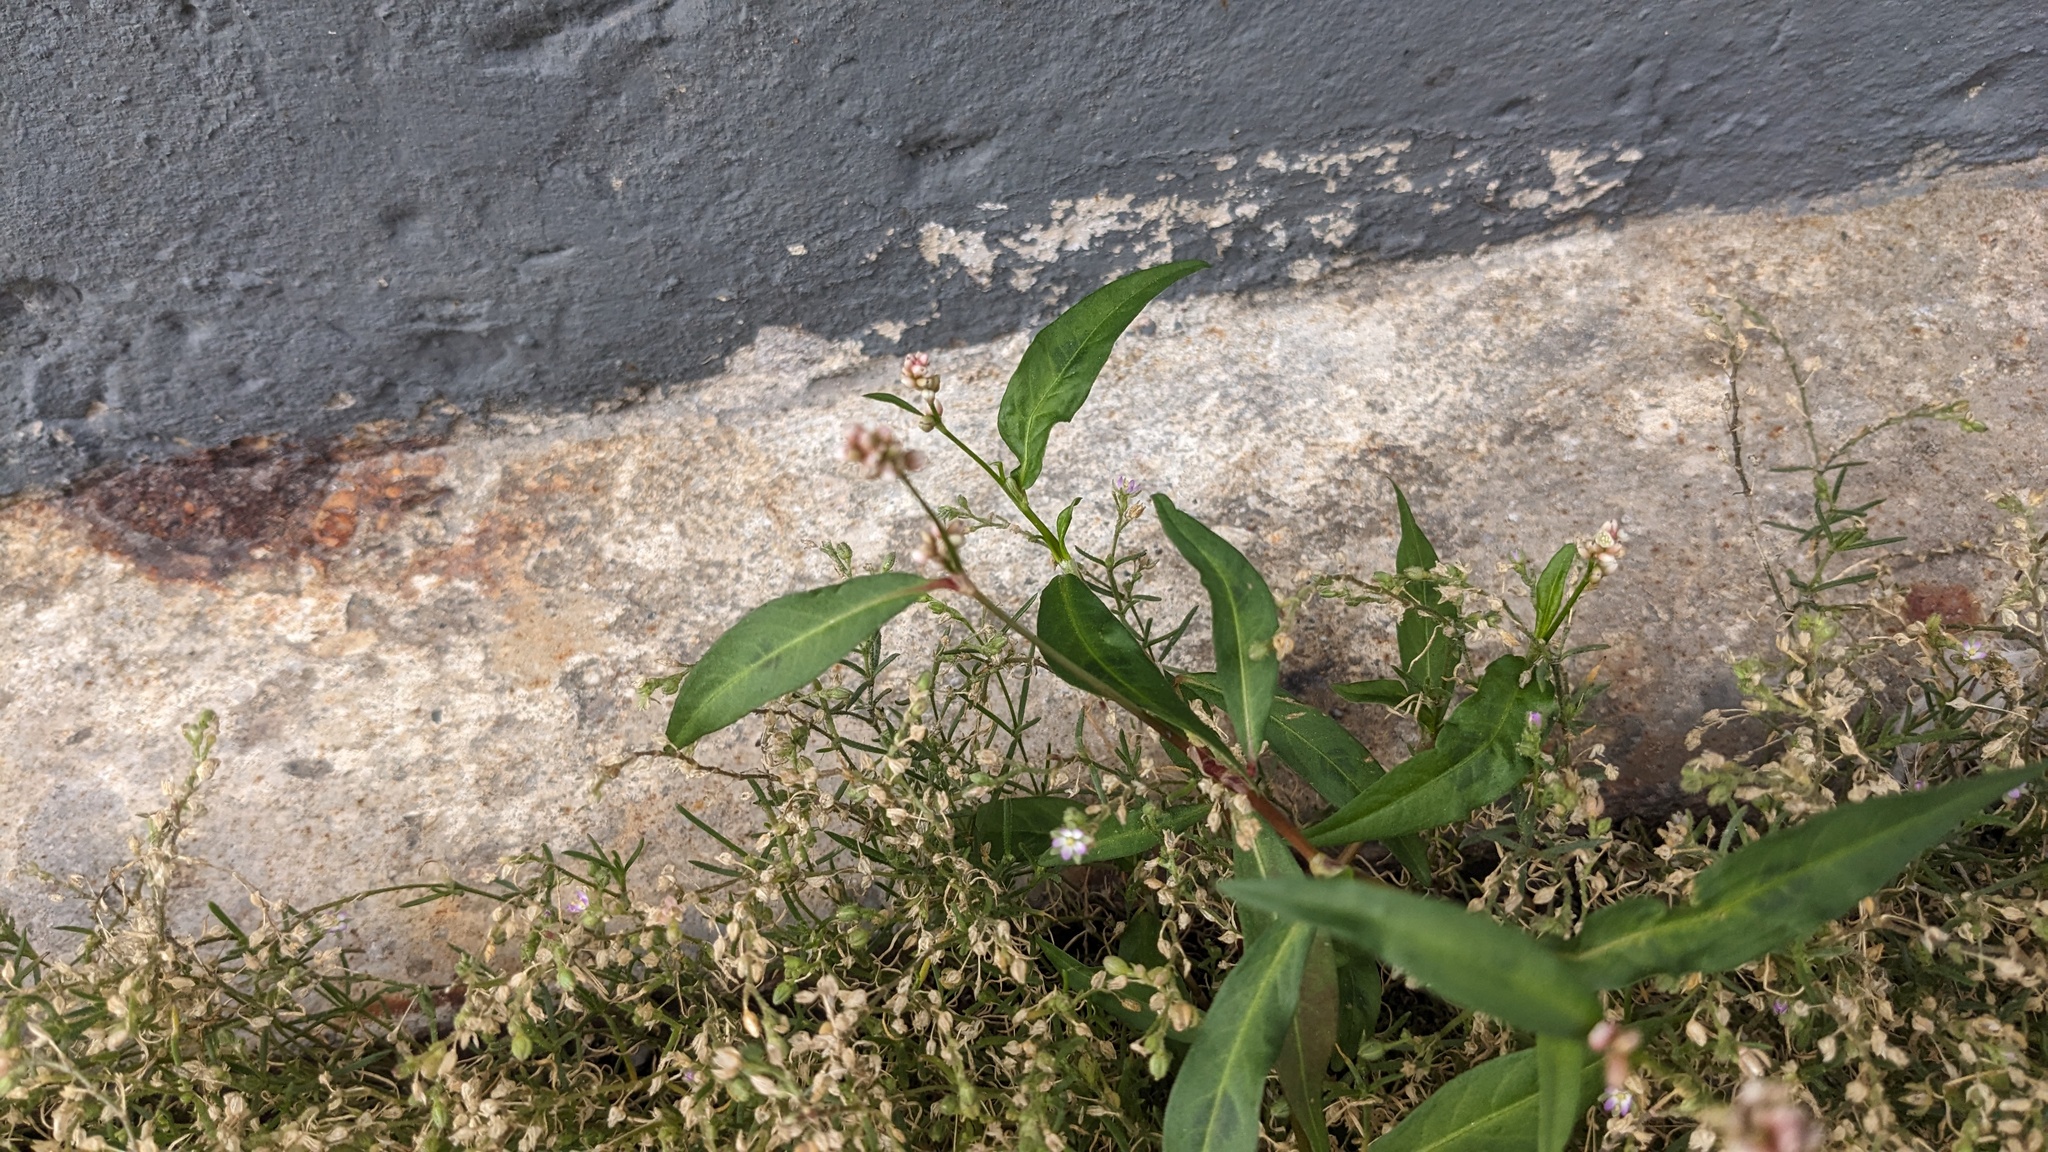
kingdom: Plantae
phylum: Tracheophyta
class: Magnoliopsida
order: Caryophyllales
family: Polygonaceae
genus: Persicaria
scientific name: Persicaria maculosa
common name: Redshank
